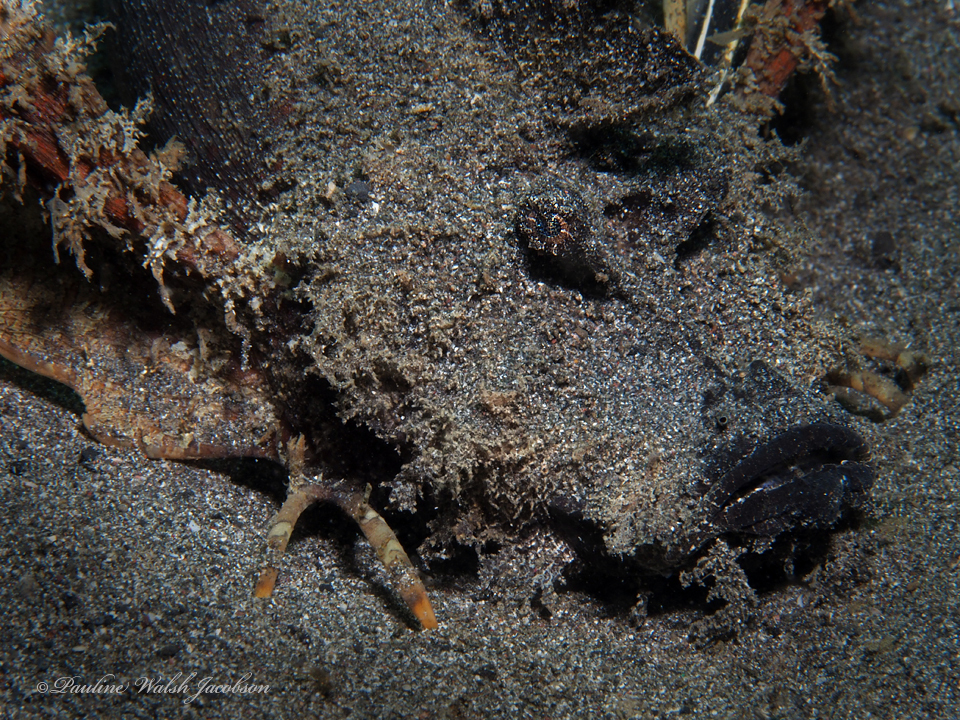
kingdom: Animalia
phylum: Chordata
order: Scorpaeniformes
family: Synanceiidae
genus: Inimicus
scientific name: Inimicus didactylus
